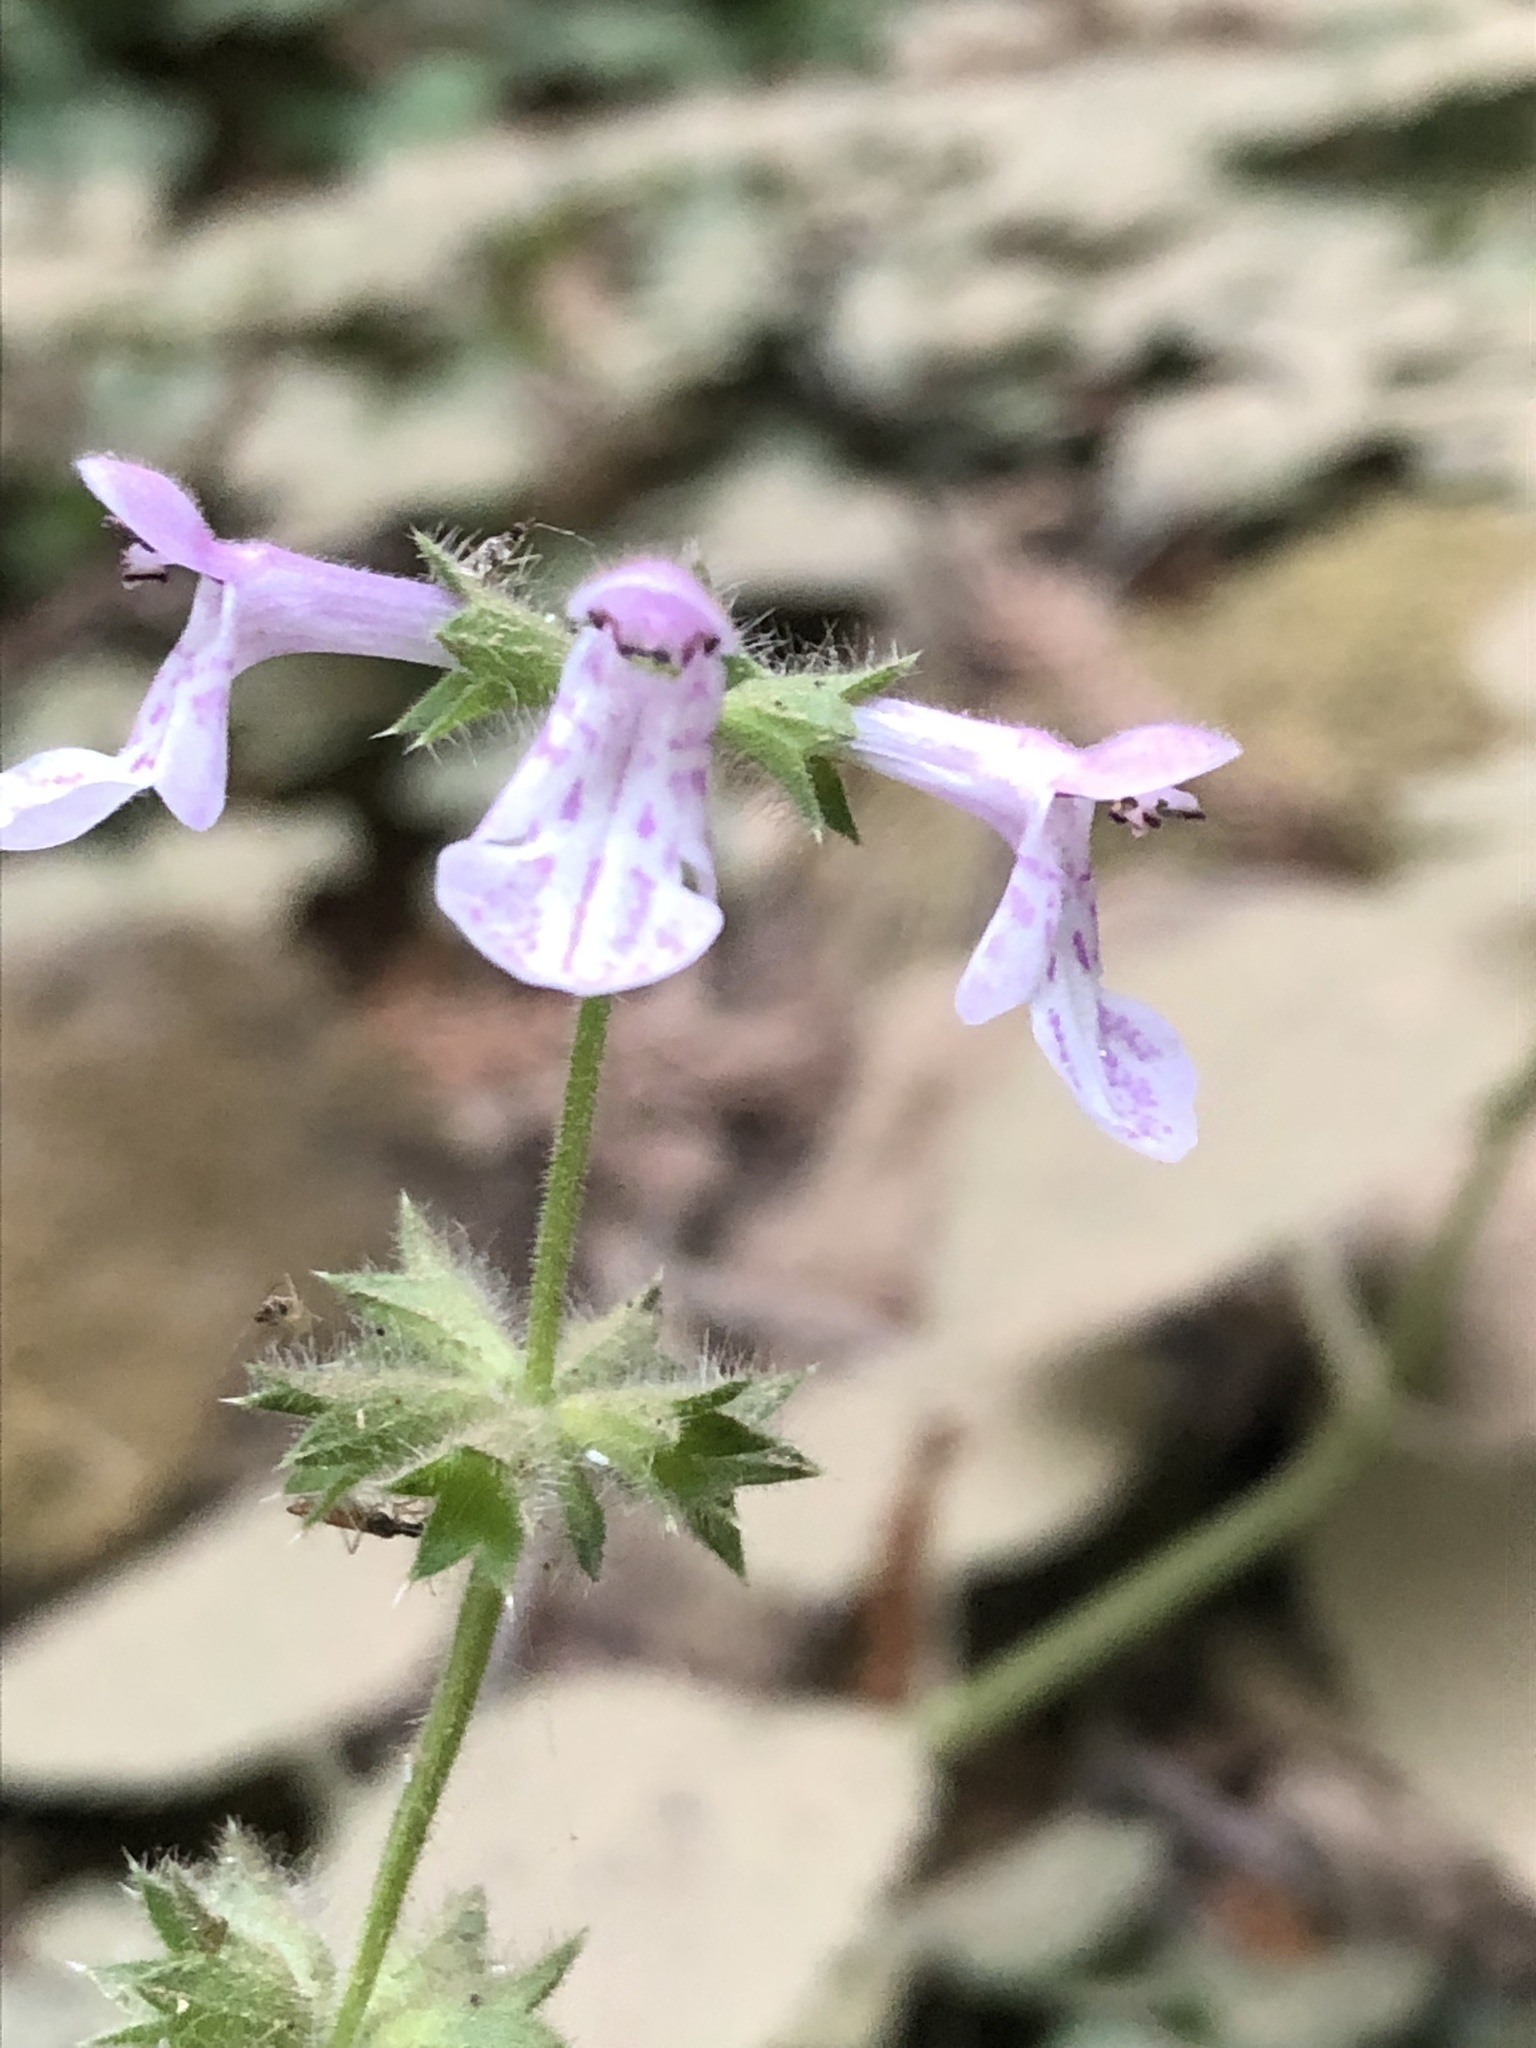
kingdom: Plantae
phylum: Tracheophyta
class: Magnoliopsida
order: Lamiales
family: Lamiaceae
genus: Stachys
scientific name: Stachys bullata
